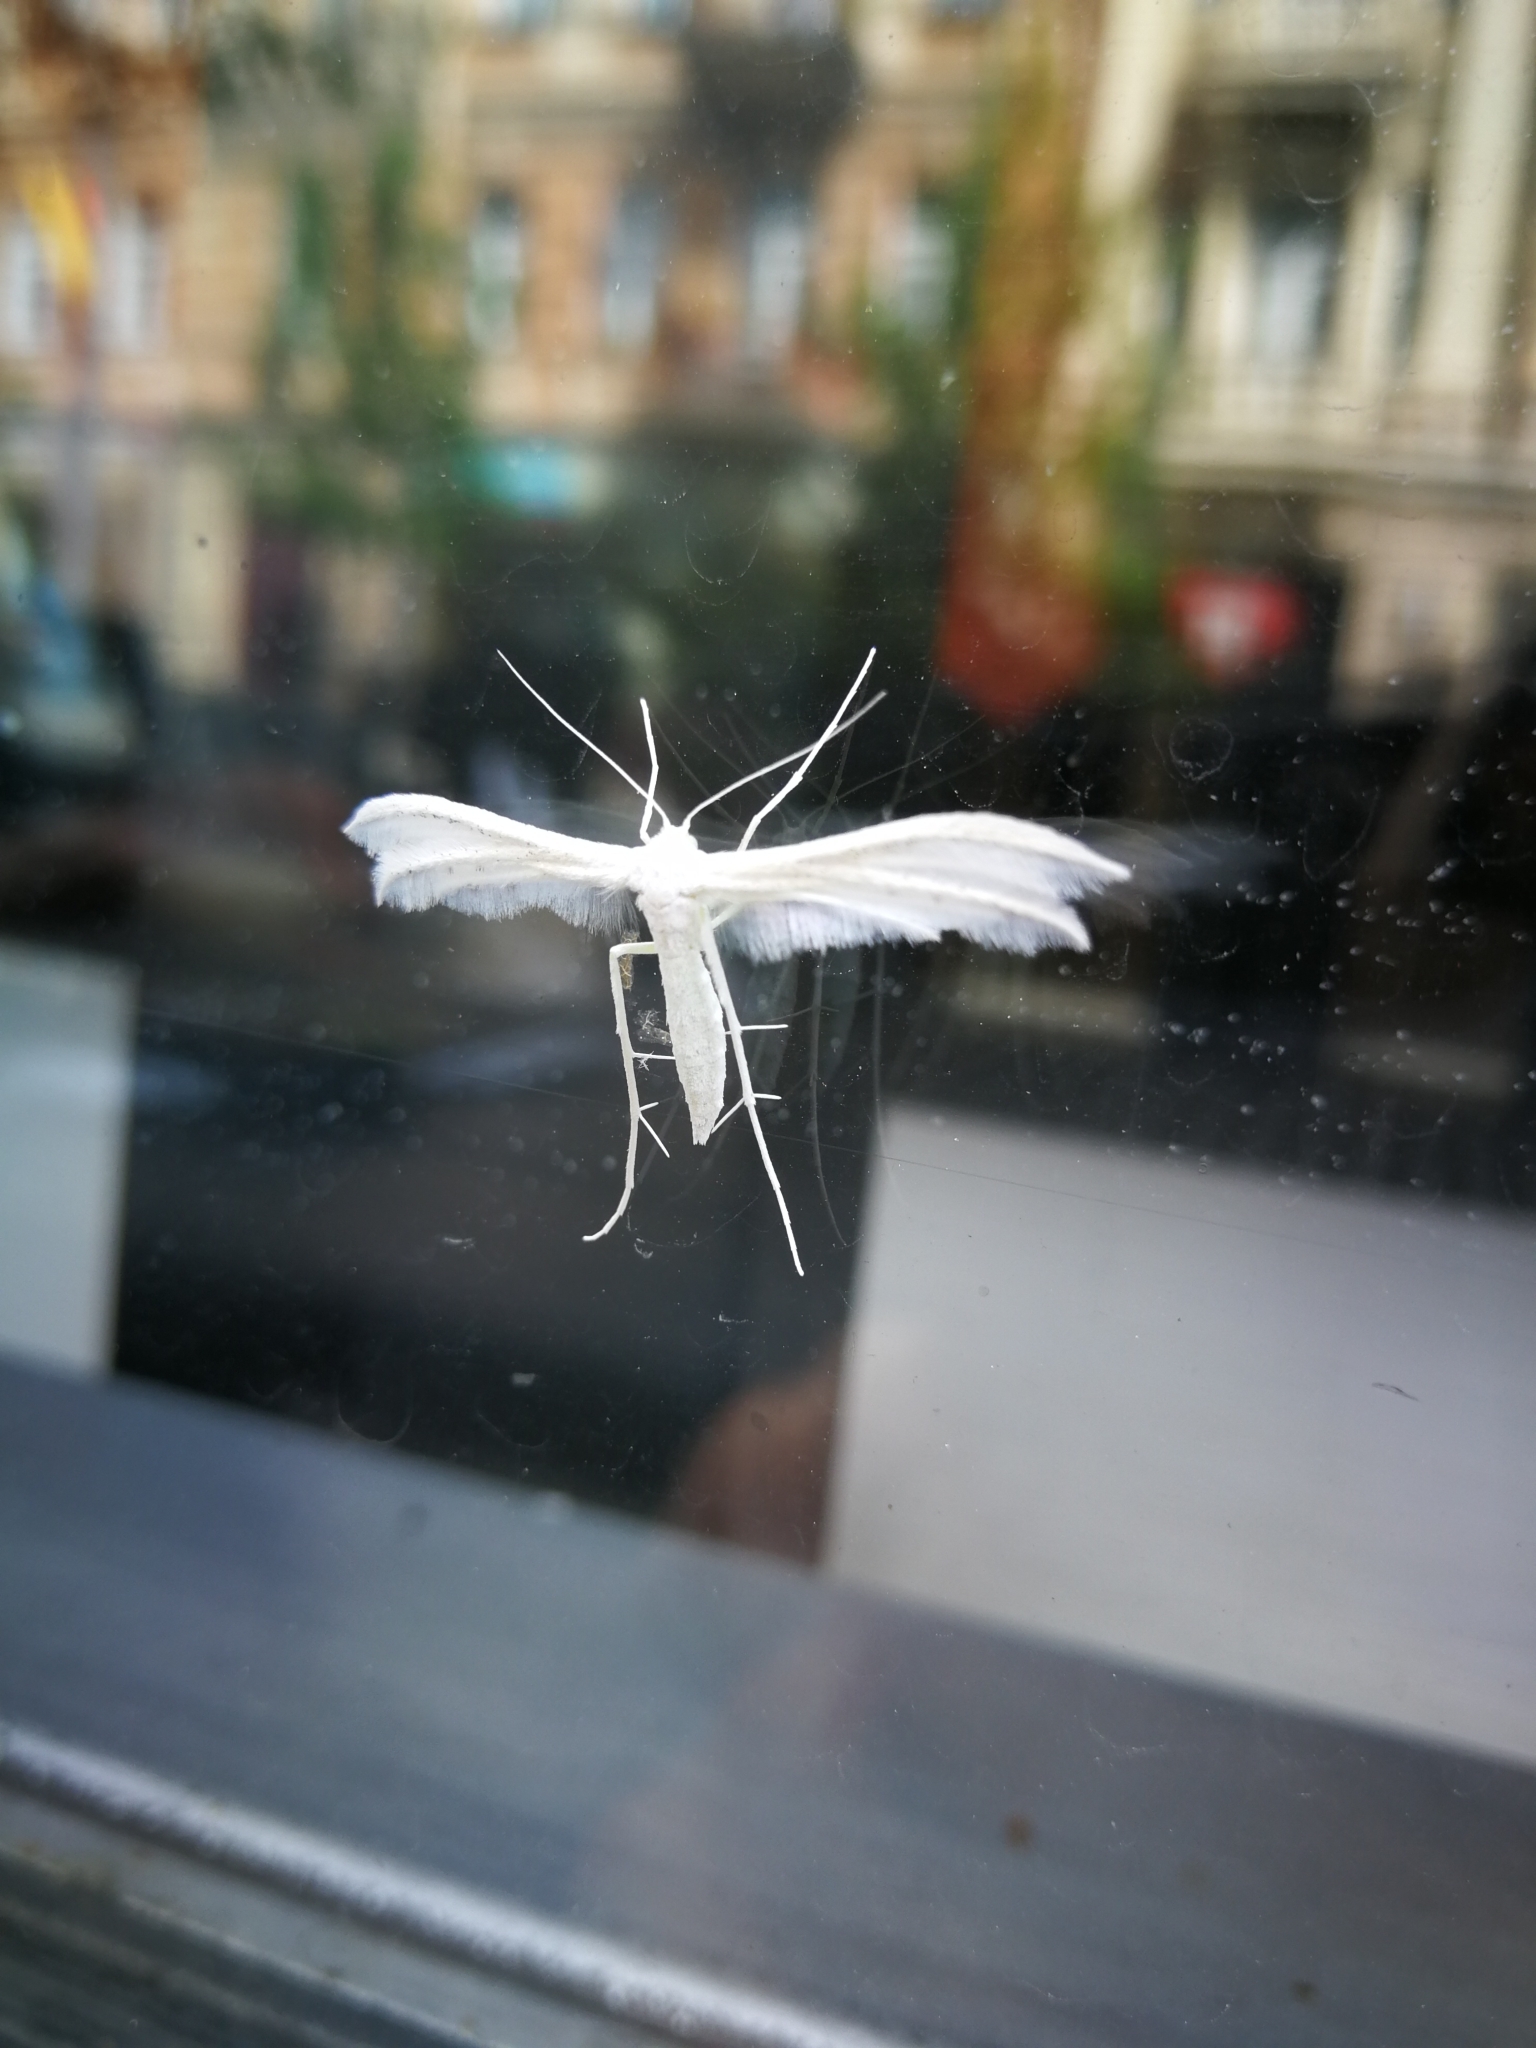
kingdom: Animalia
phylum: Arthropoda
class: Insecta
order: Lepidoptera
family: Pterophoridae
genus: Pterophorus
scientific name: Pterophorus pentadactyla
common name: White plume moth
